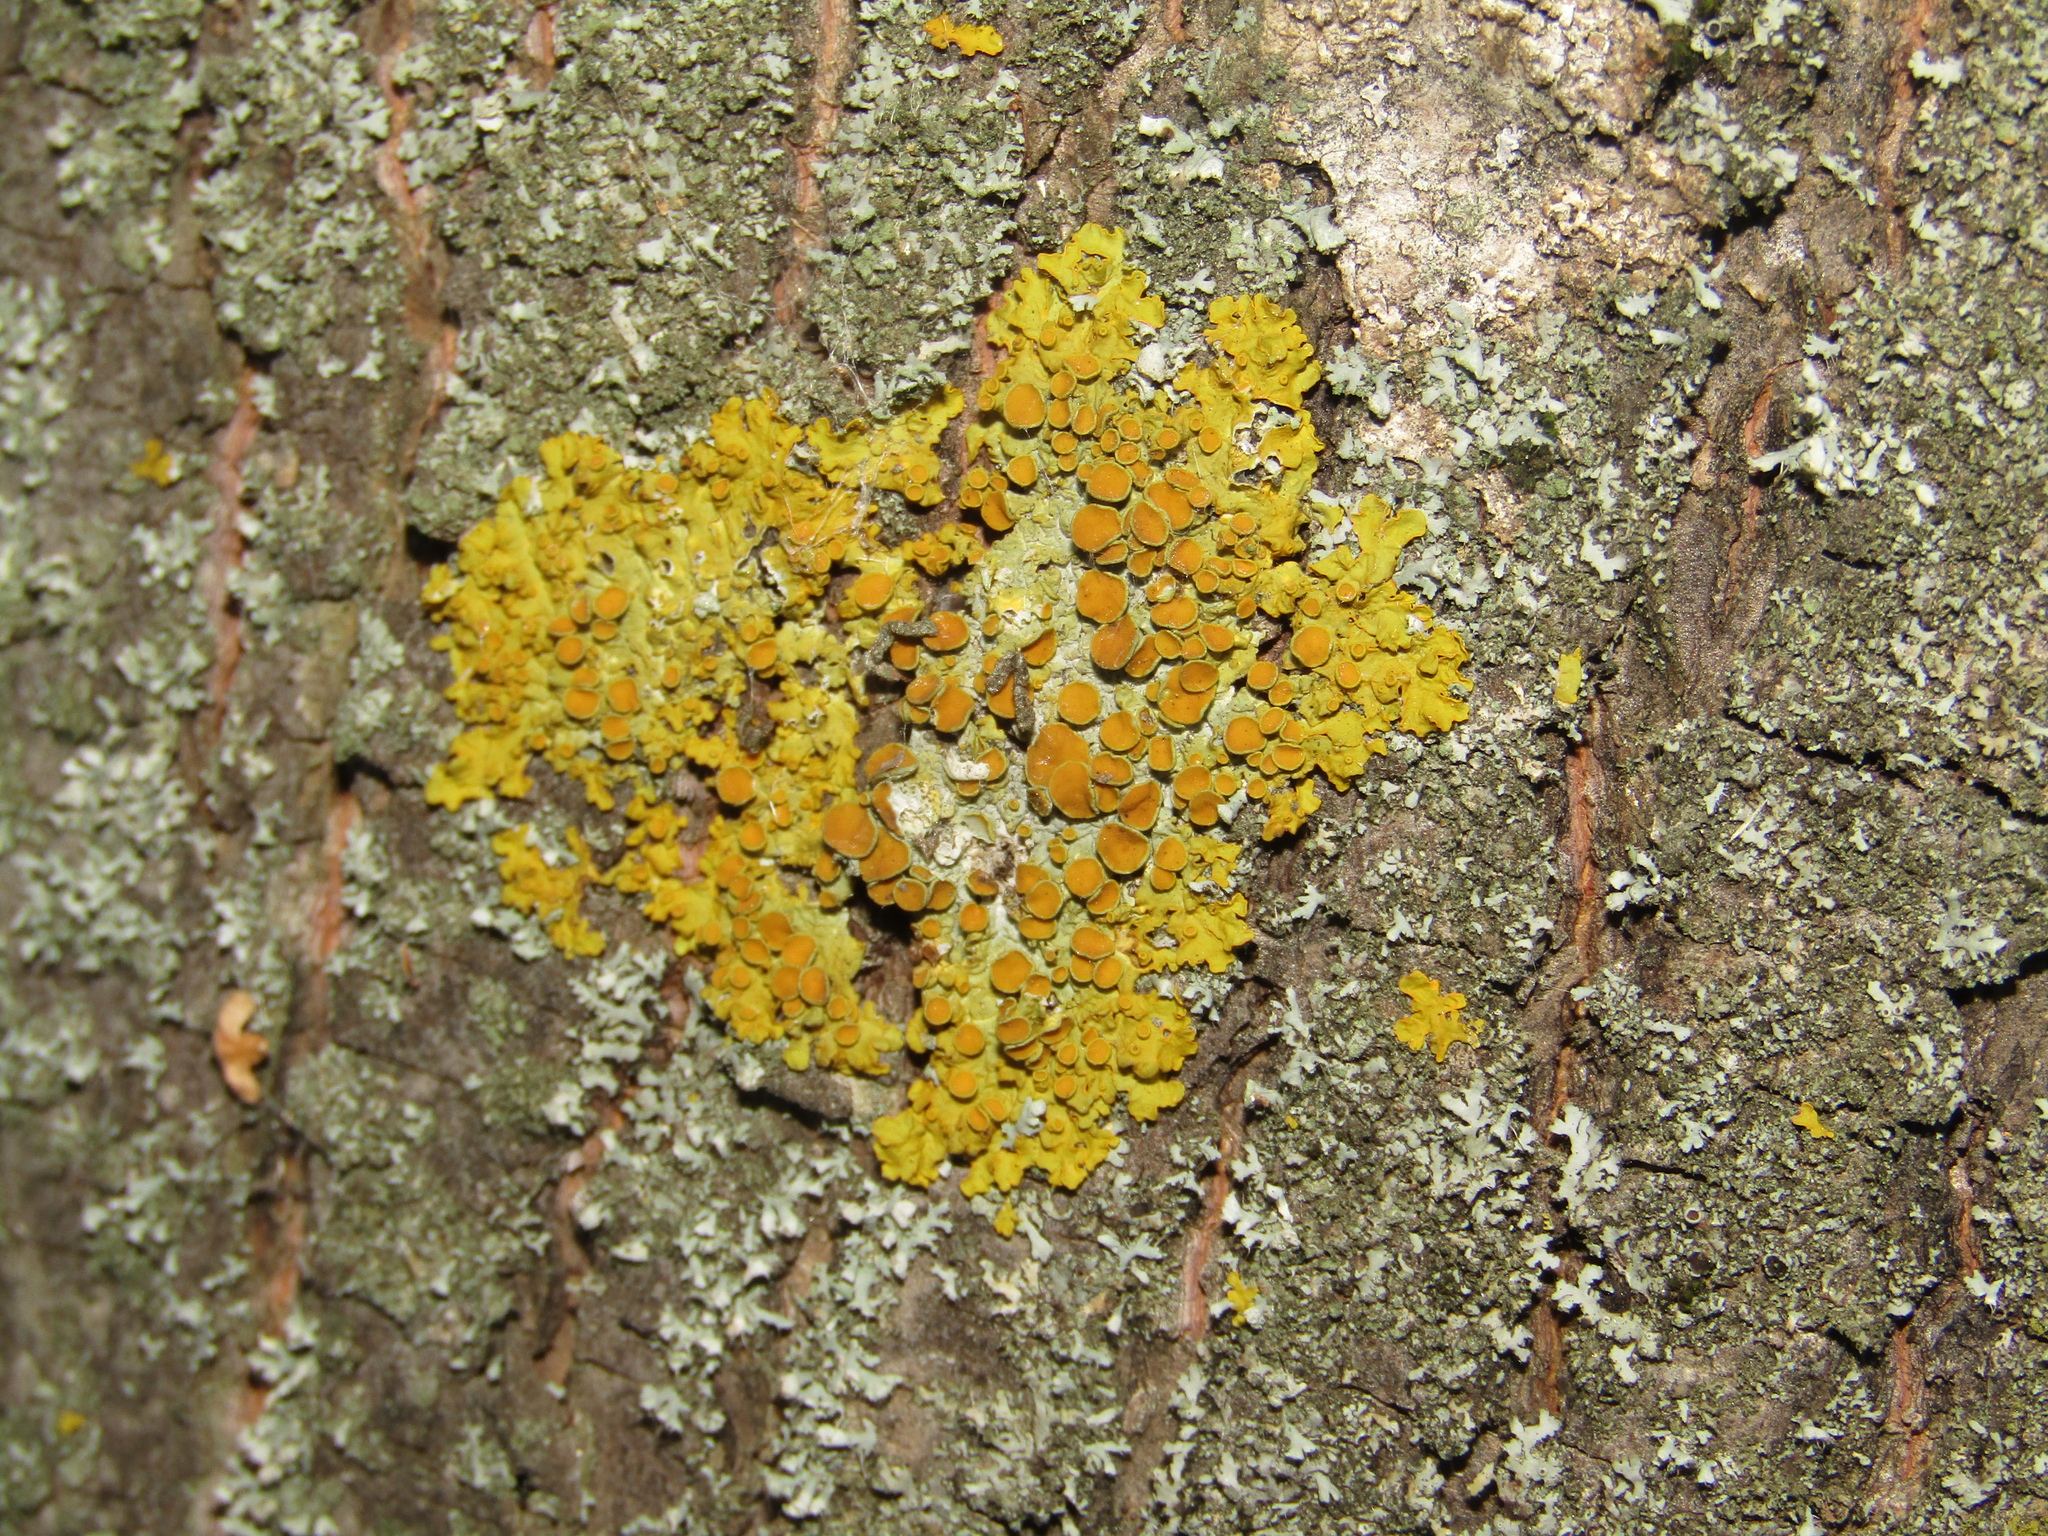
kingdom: Fungi
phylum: Ascomycota
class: Lecanoromycetes
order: Teloschistales
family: Teloschistaceae
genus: Xanthoria
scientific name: Xanthoria parietina
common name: Common orange lichen
